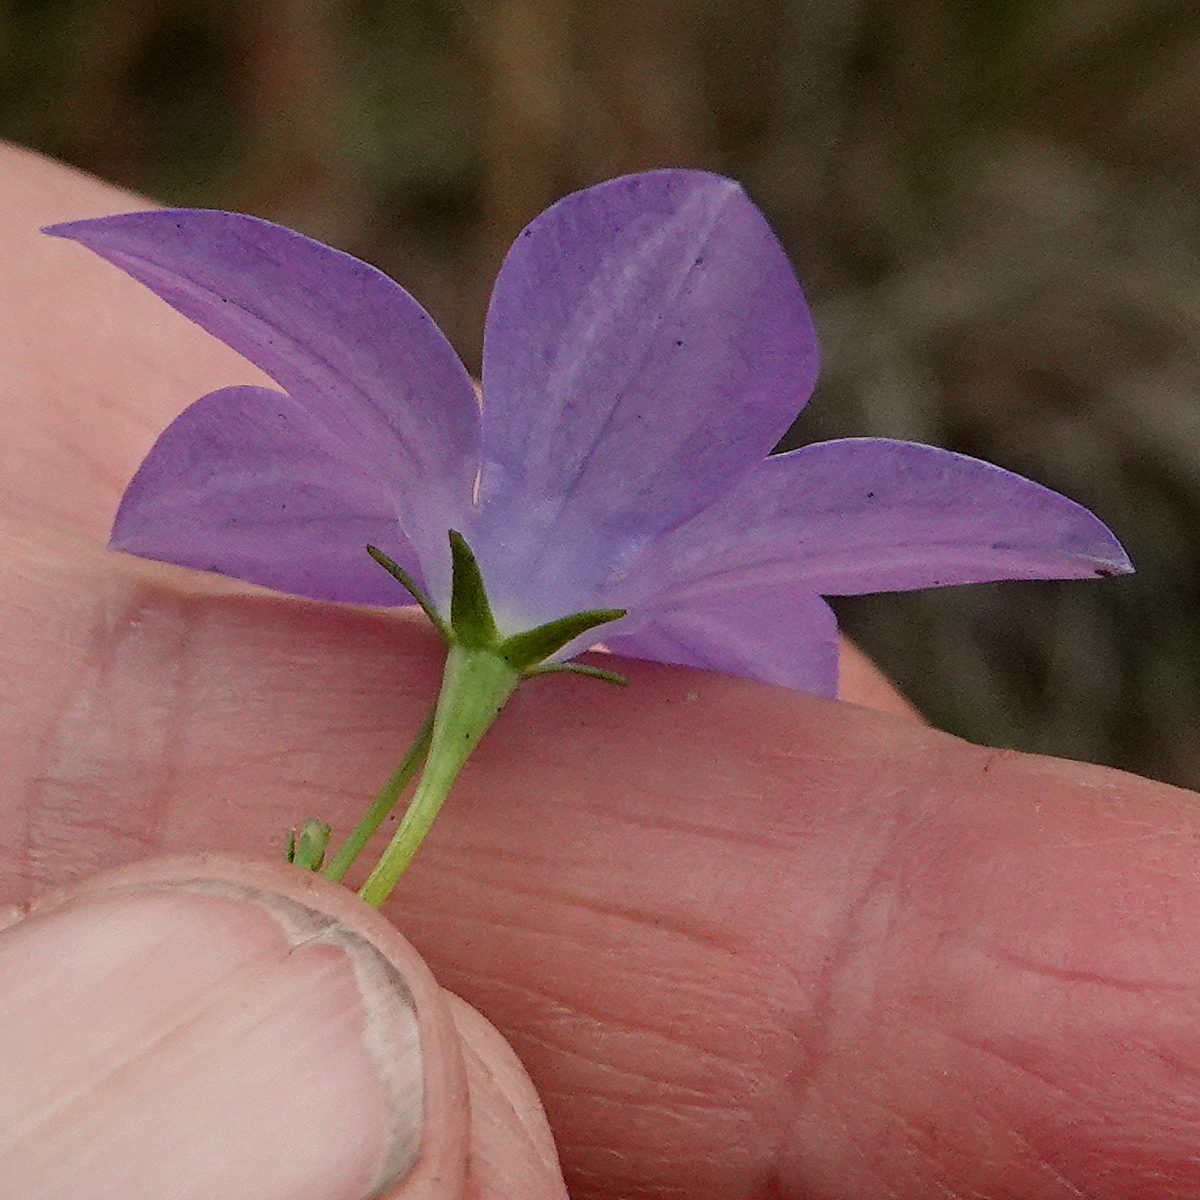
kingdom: Plantae
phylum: Tracheophyta
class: Magnoliopsida
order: Asterales
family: Campanulaceae
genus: Wahlenbergia
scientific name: Wahlenbergia planiflora
